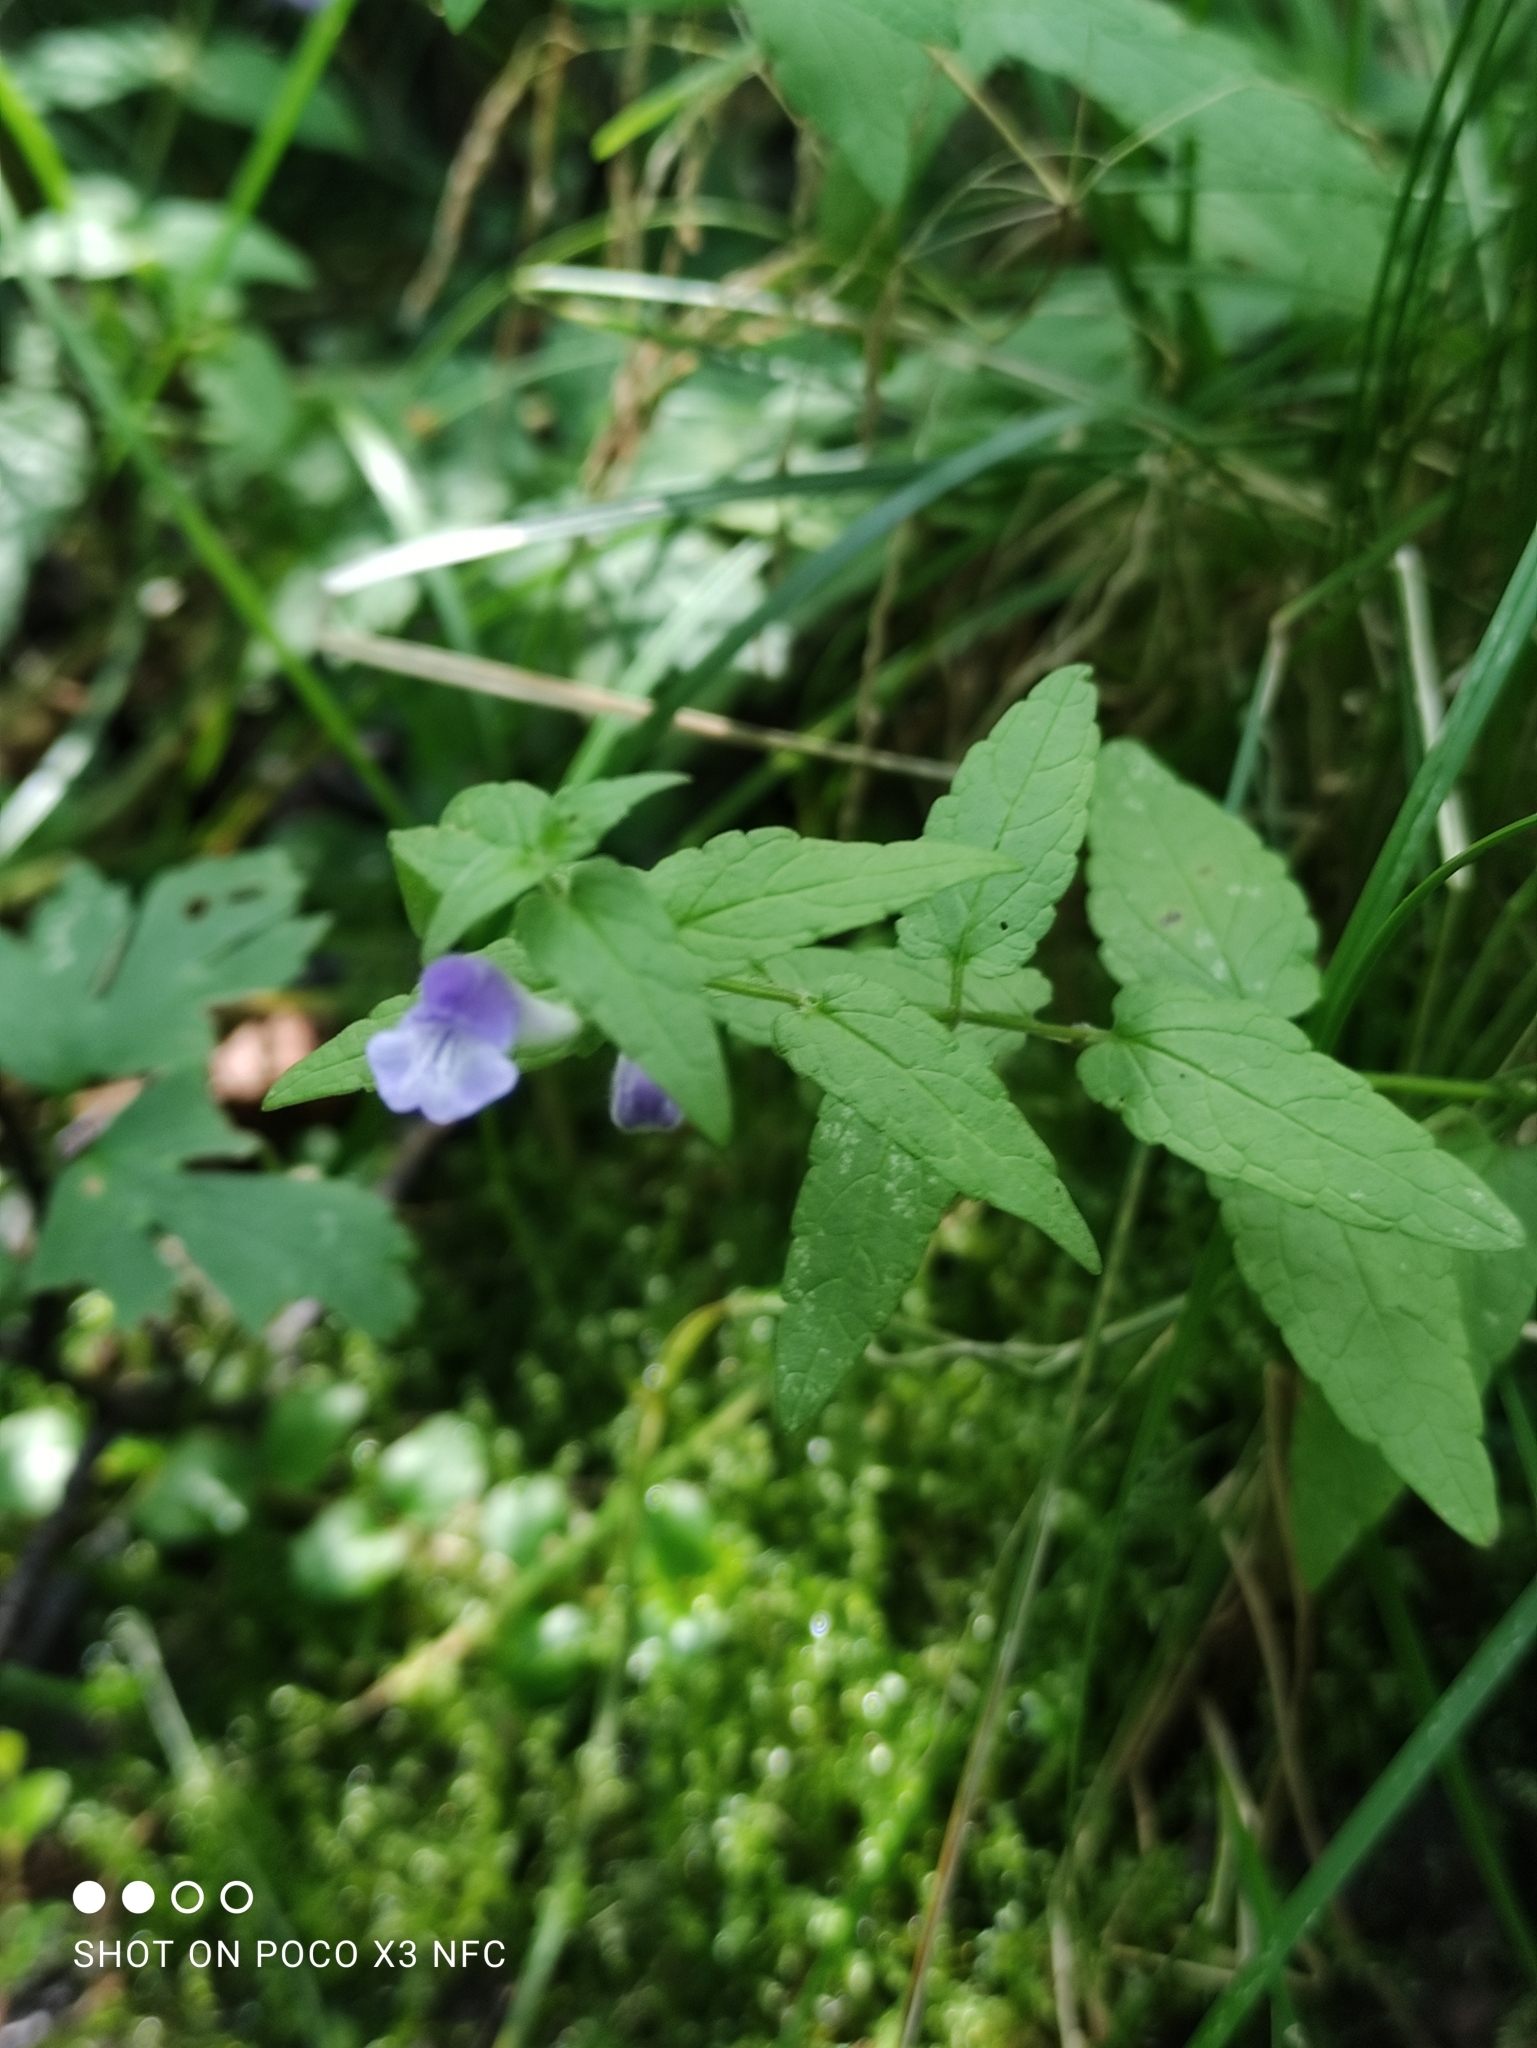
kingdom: Plantae
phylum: Tracheophyta
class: Magnoliopsida
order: Lamiales
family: Lamiaceae
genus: Scutellaria
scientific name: Scutellaria galericulata
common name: Skullcap
